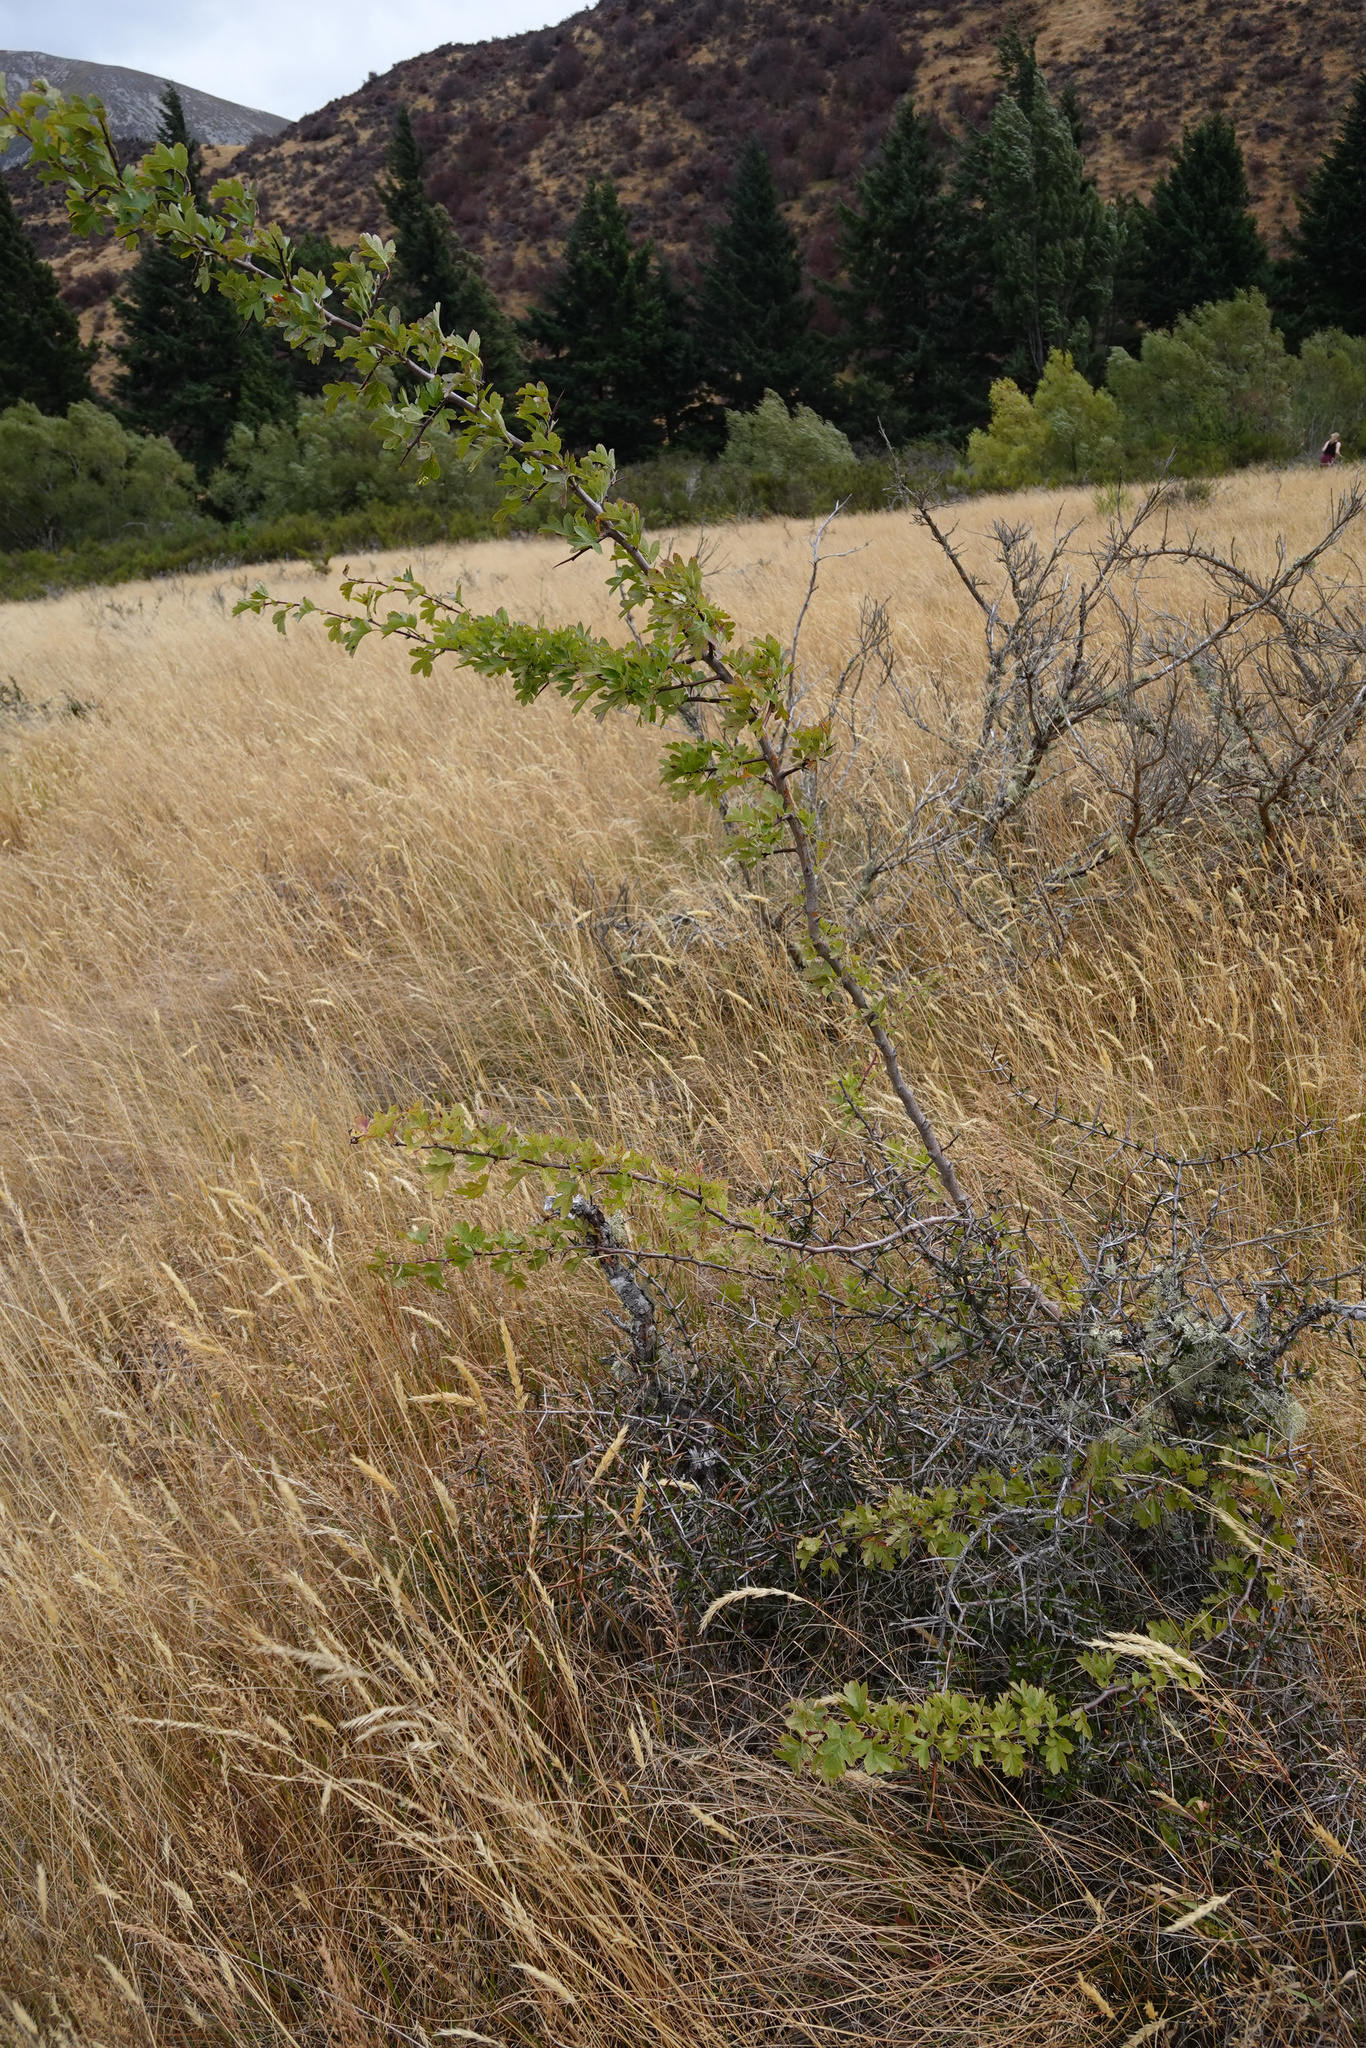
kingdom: Plantae
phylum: Tracheophyta
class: Magnoliopsida
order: Rosales
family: Rosaceae
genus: Crataegus
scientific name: Crataegus monogyna
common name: Hawthorn
